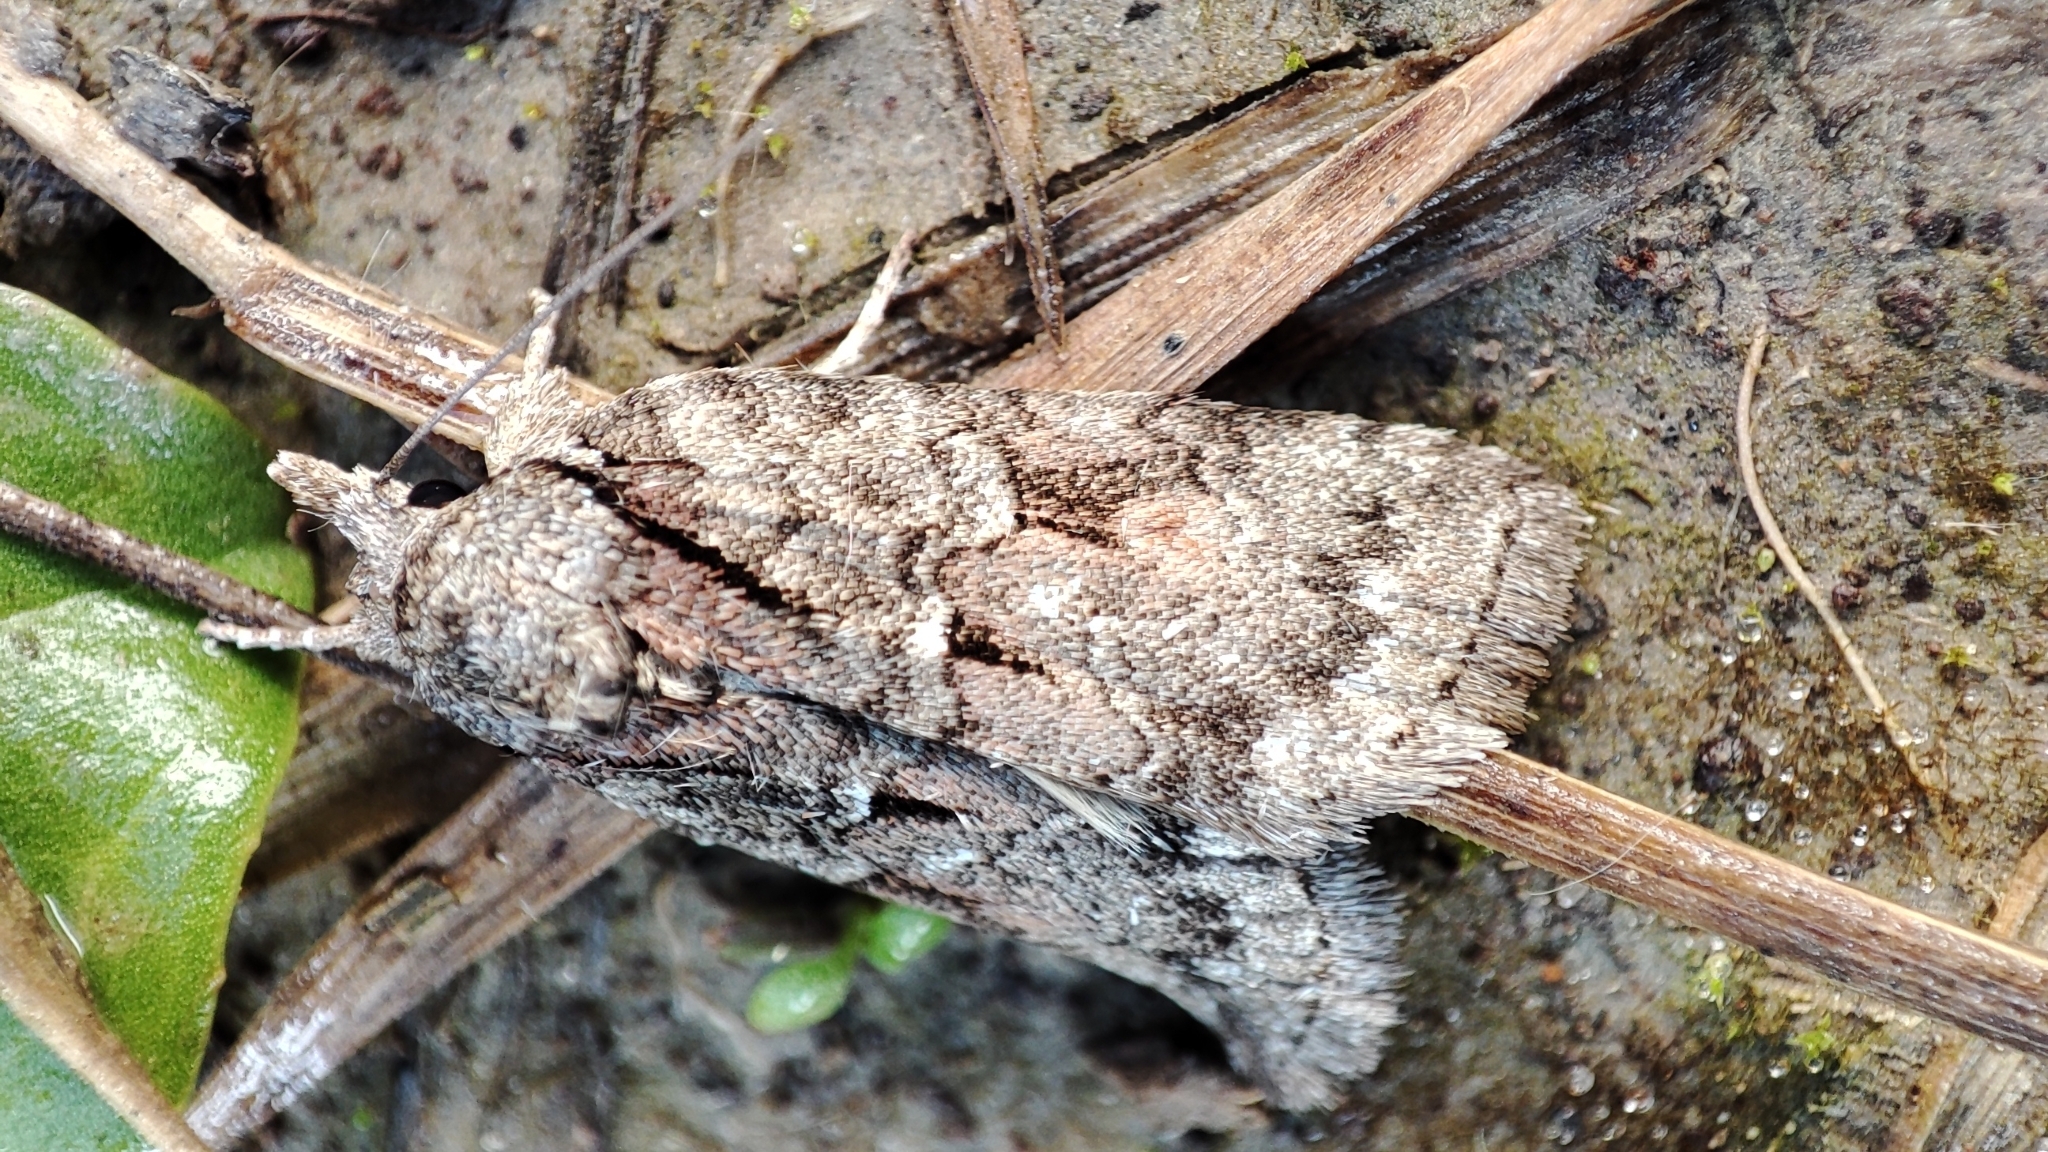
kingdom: Animalia
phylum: Arthropoda
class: Insecta
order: Lepidoptera
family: Nolidae
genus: Nycteola
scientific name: Nycteola degenerana
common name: Swallow nycteoline
